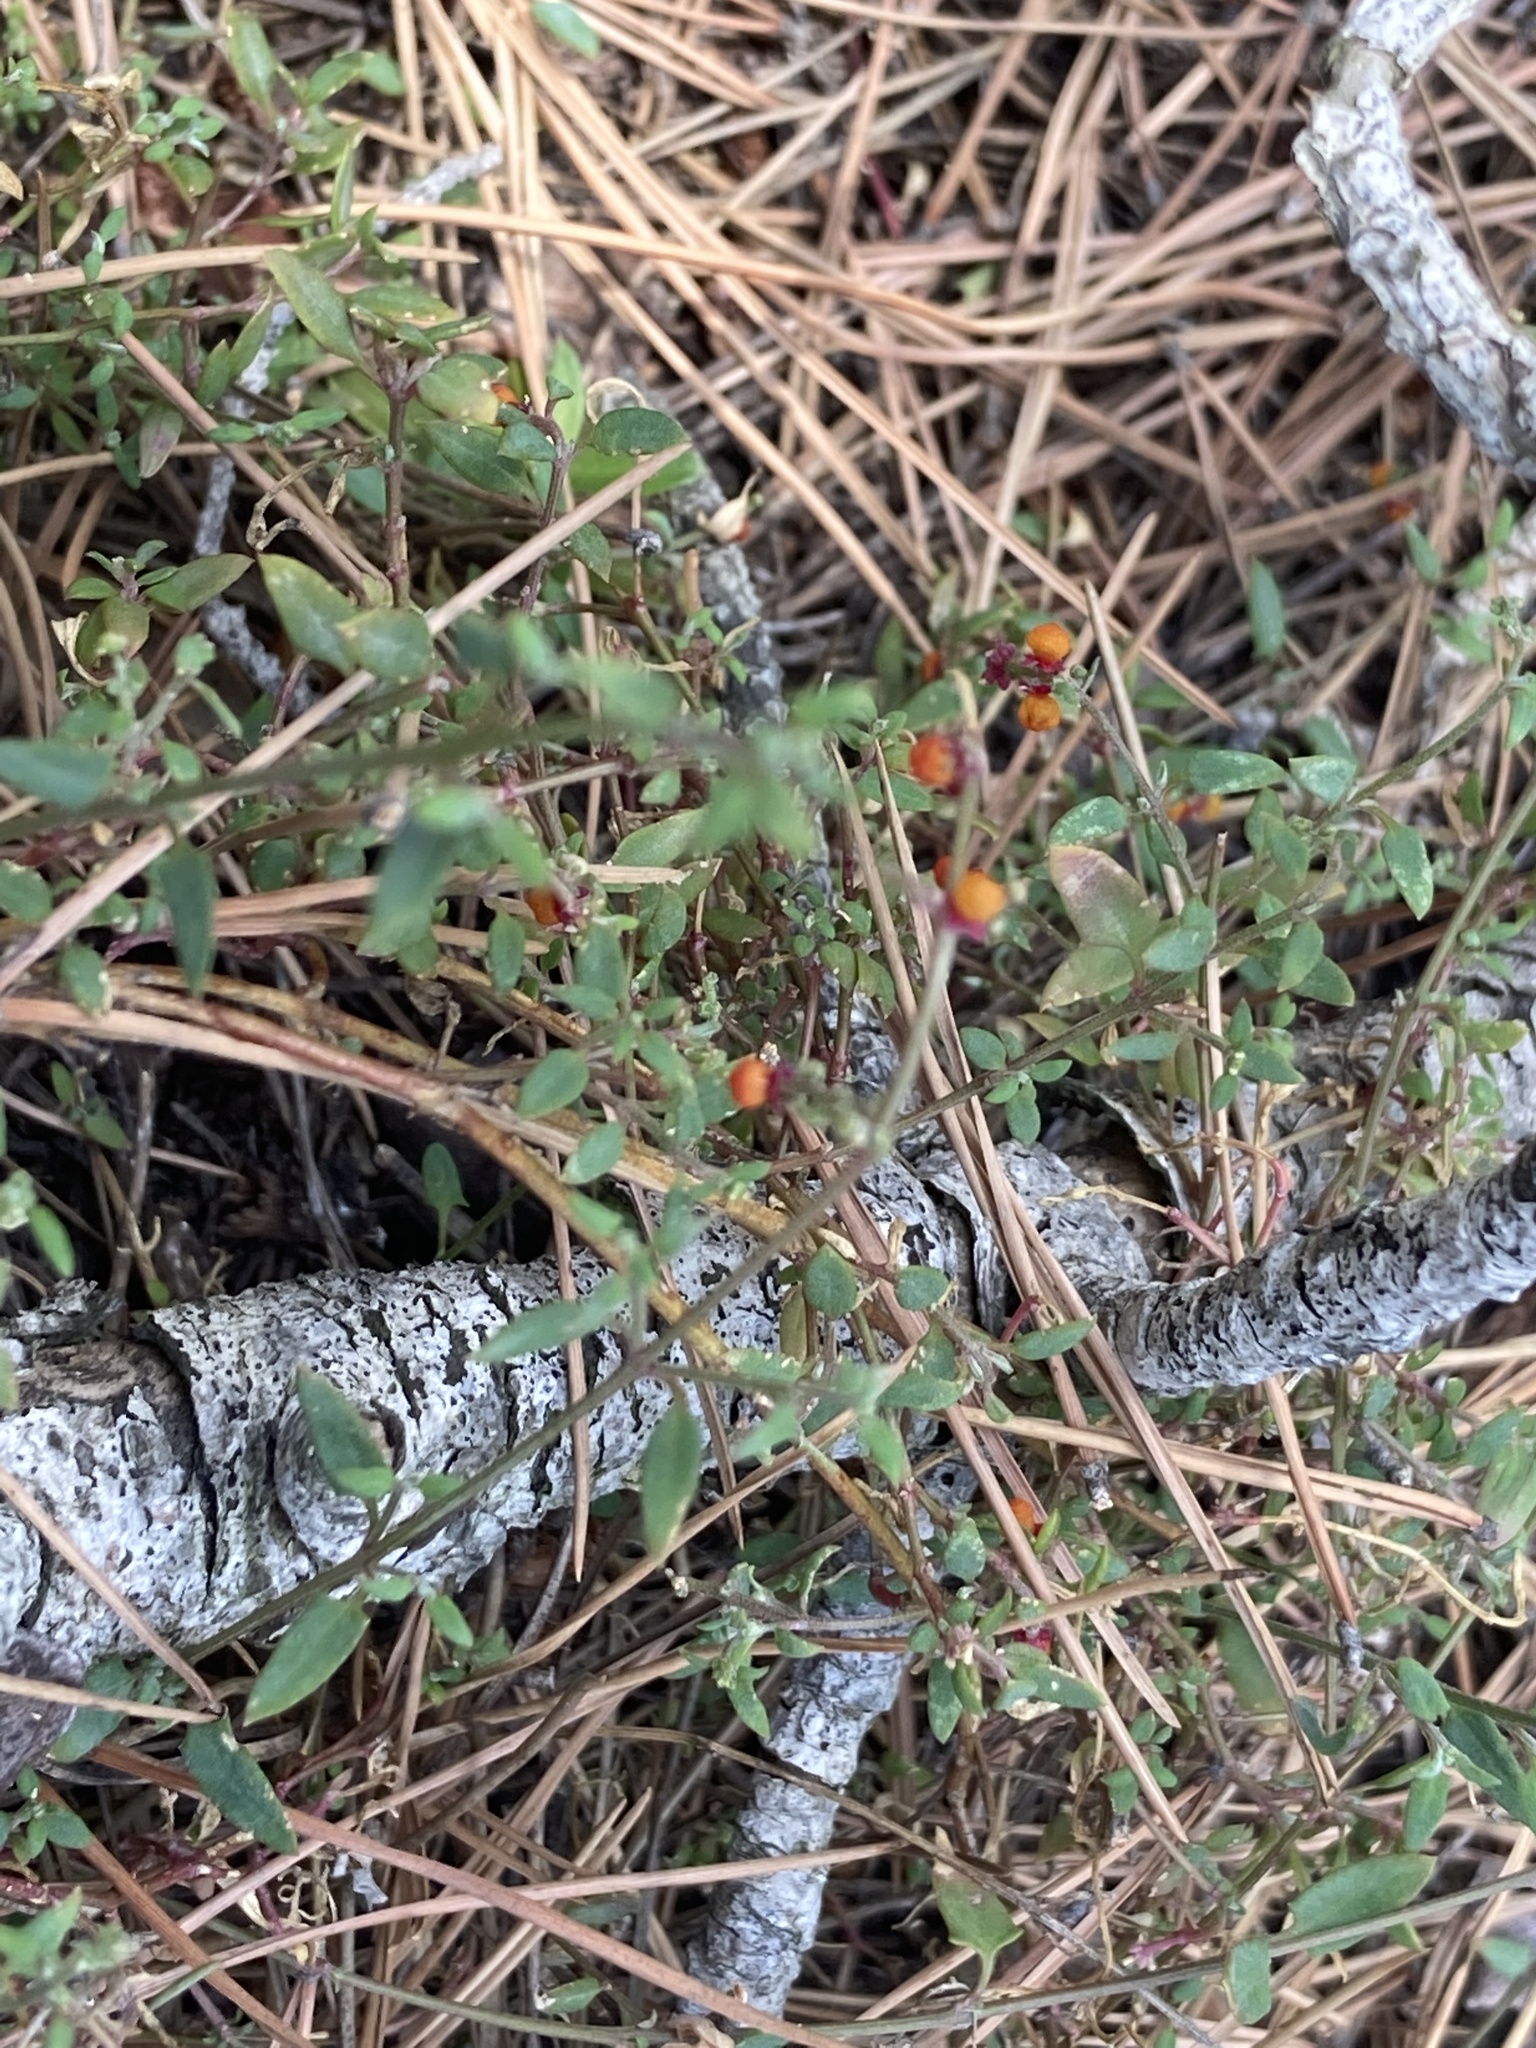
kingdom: Plantae
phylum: Tracheophyta
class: Magnoliopsida
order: Caryophyllales
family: Amaranthaceae
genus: Chenopodium
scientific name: Chenopodium nutans
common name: Climbing-saltbush
